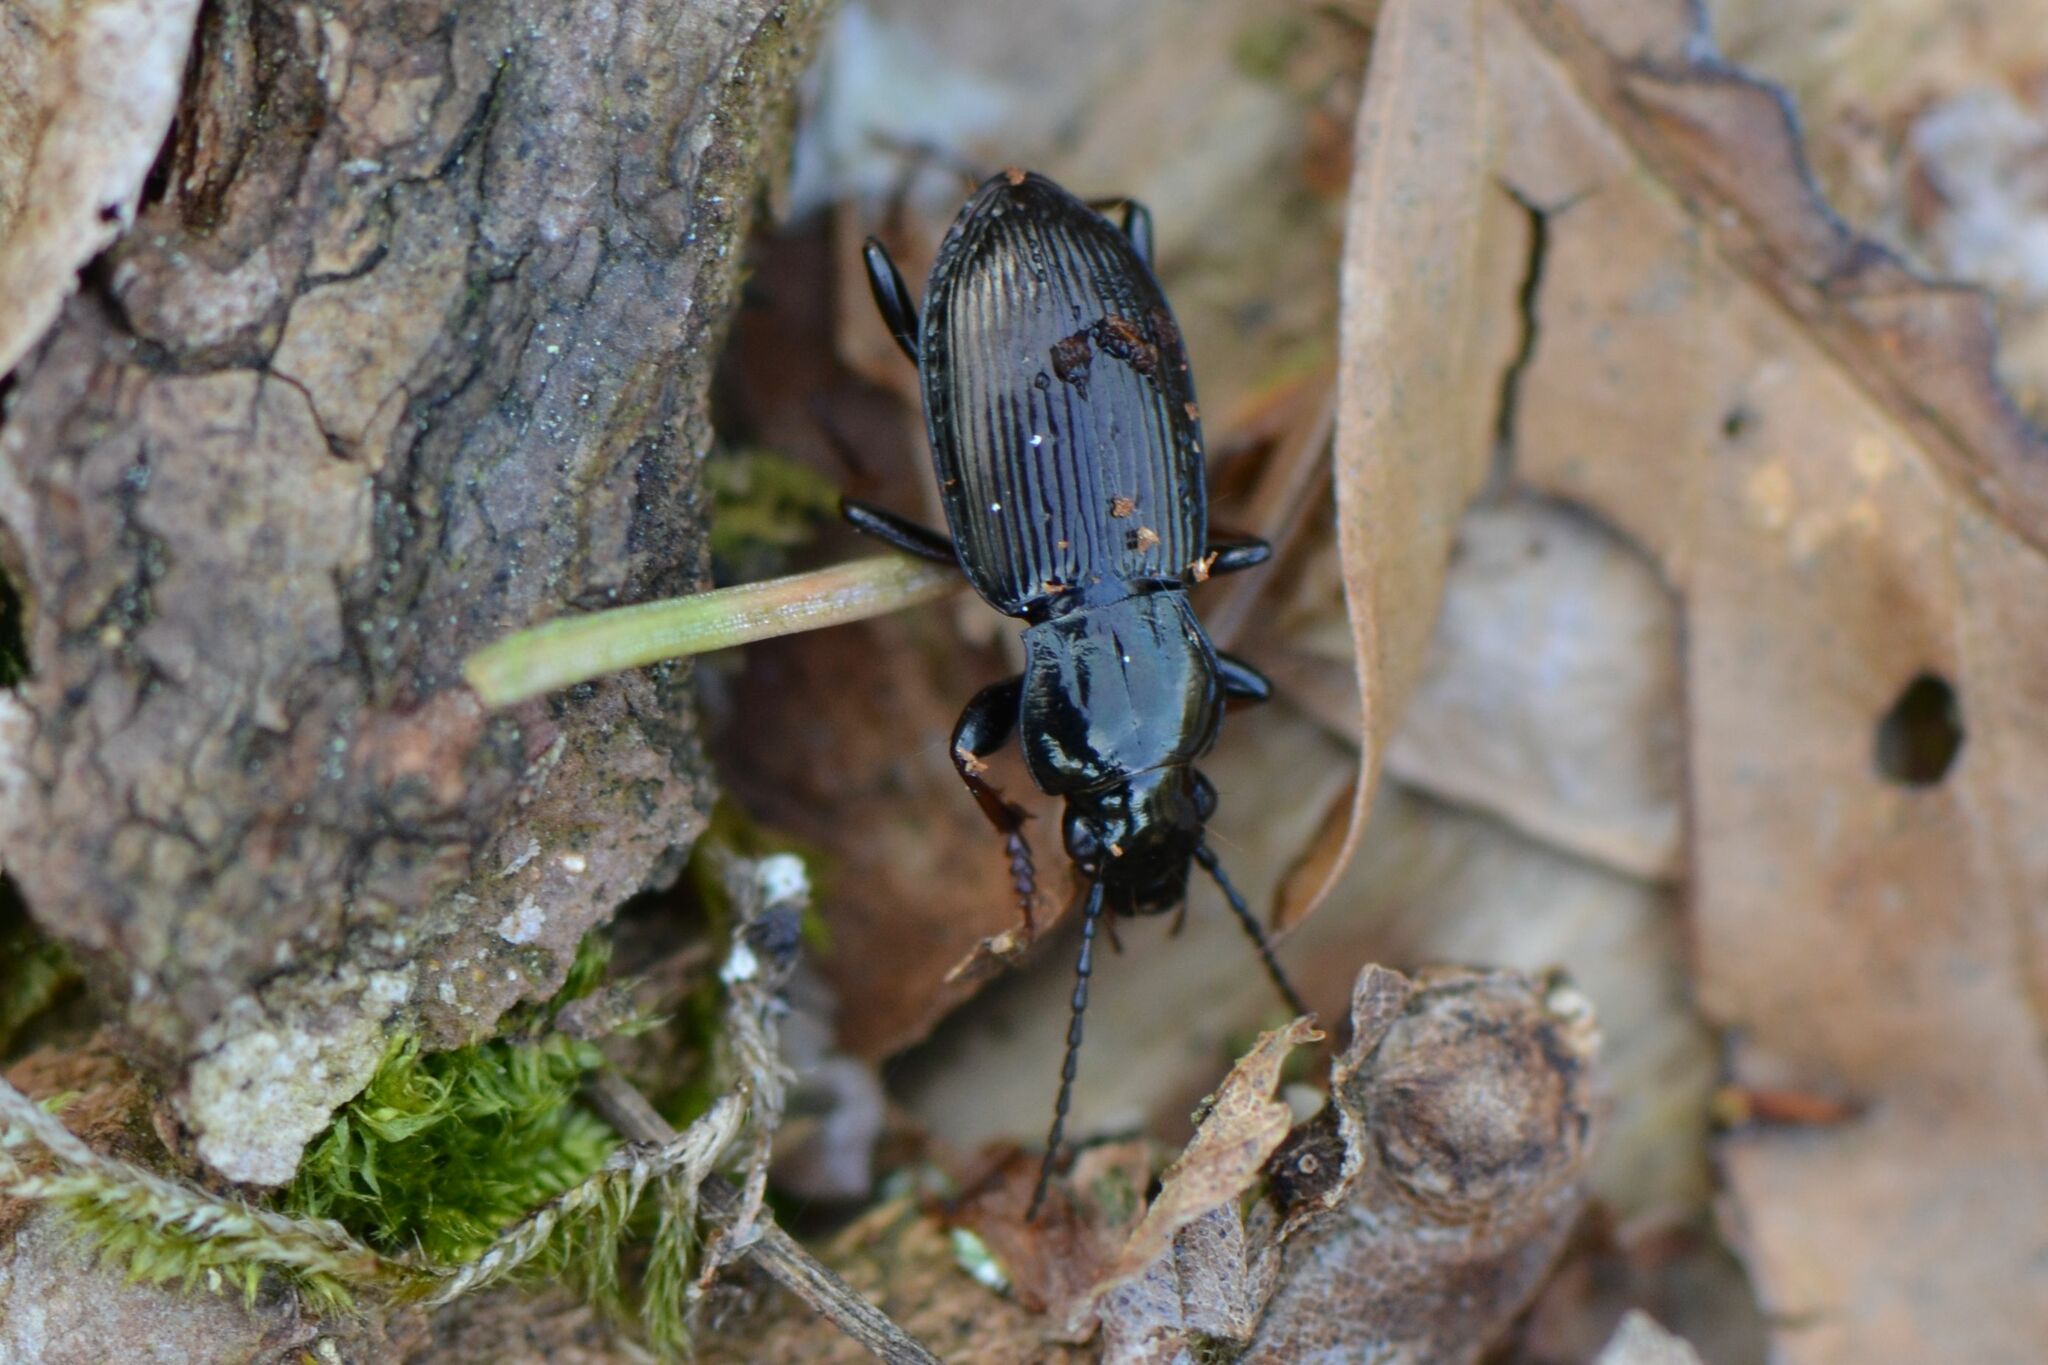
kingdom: Animalia
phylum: Arthropoda
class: Insecta
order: Coleoptera
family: Carabidae
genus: Pterostichus
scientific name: Pterostichus oblongopunctatus
